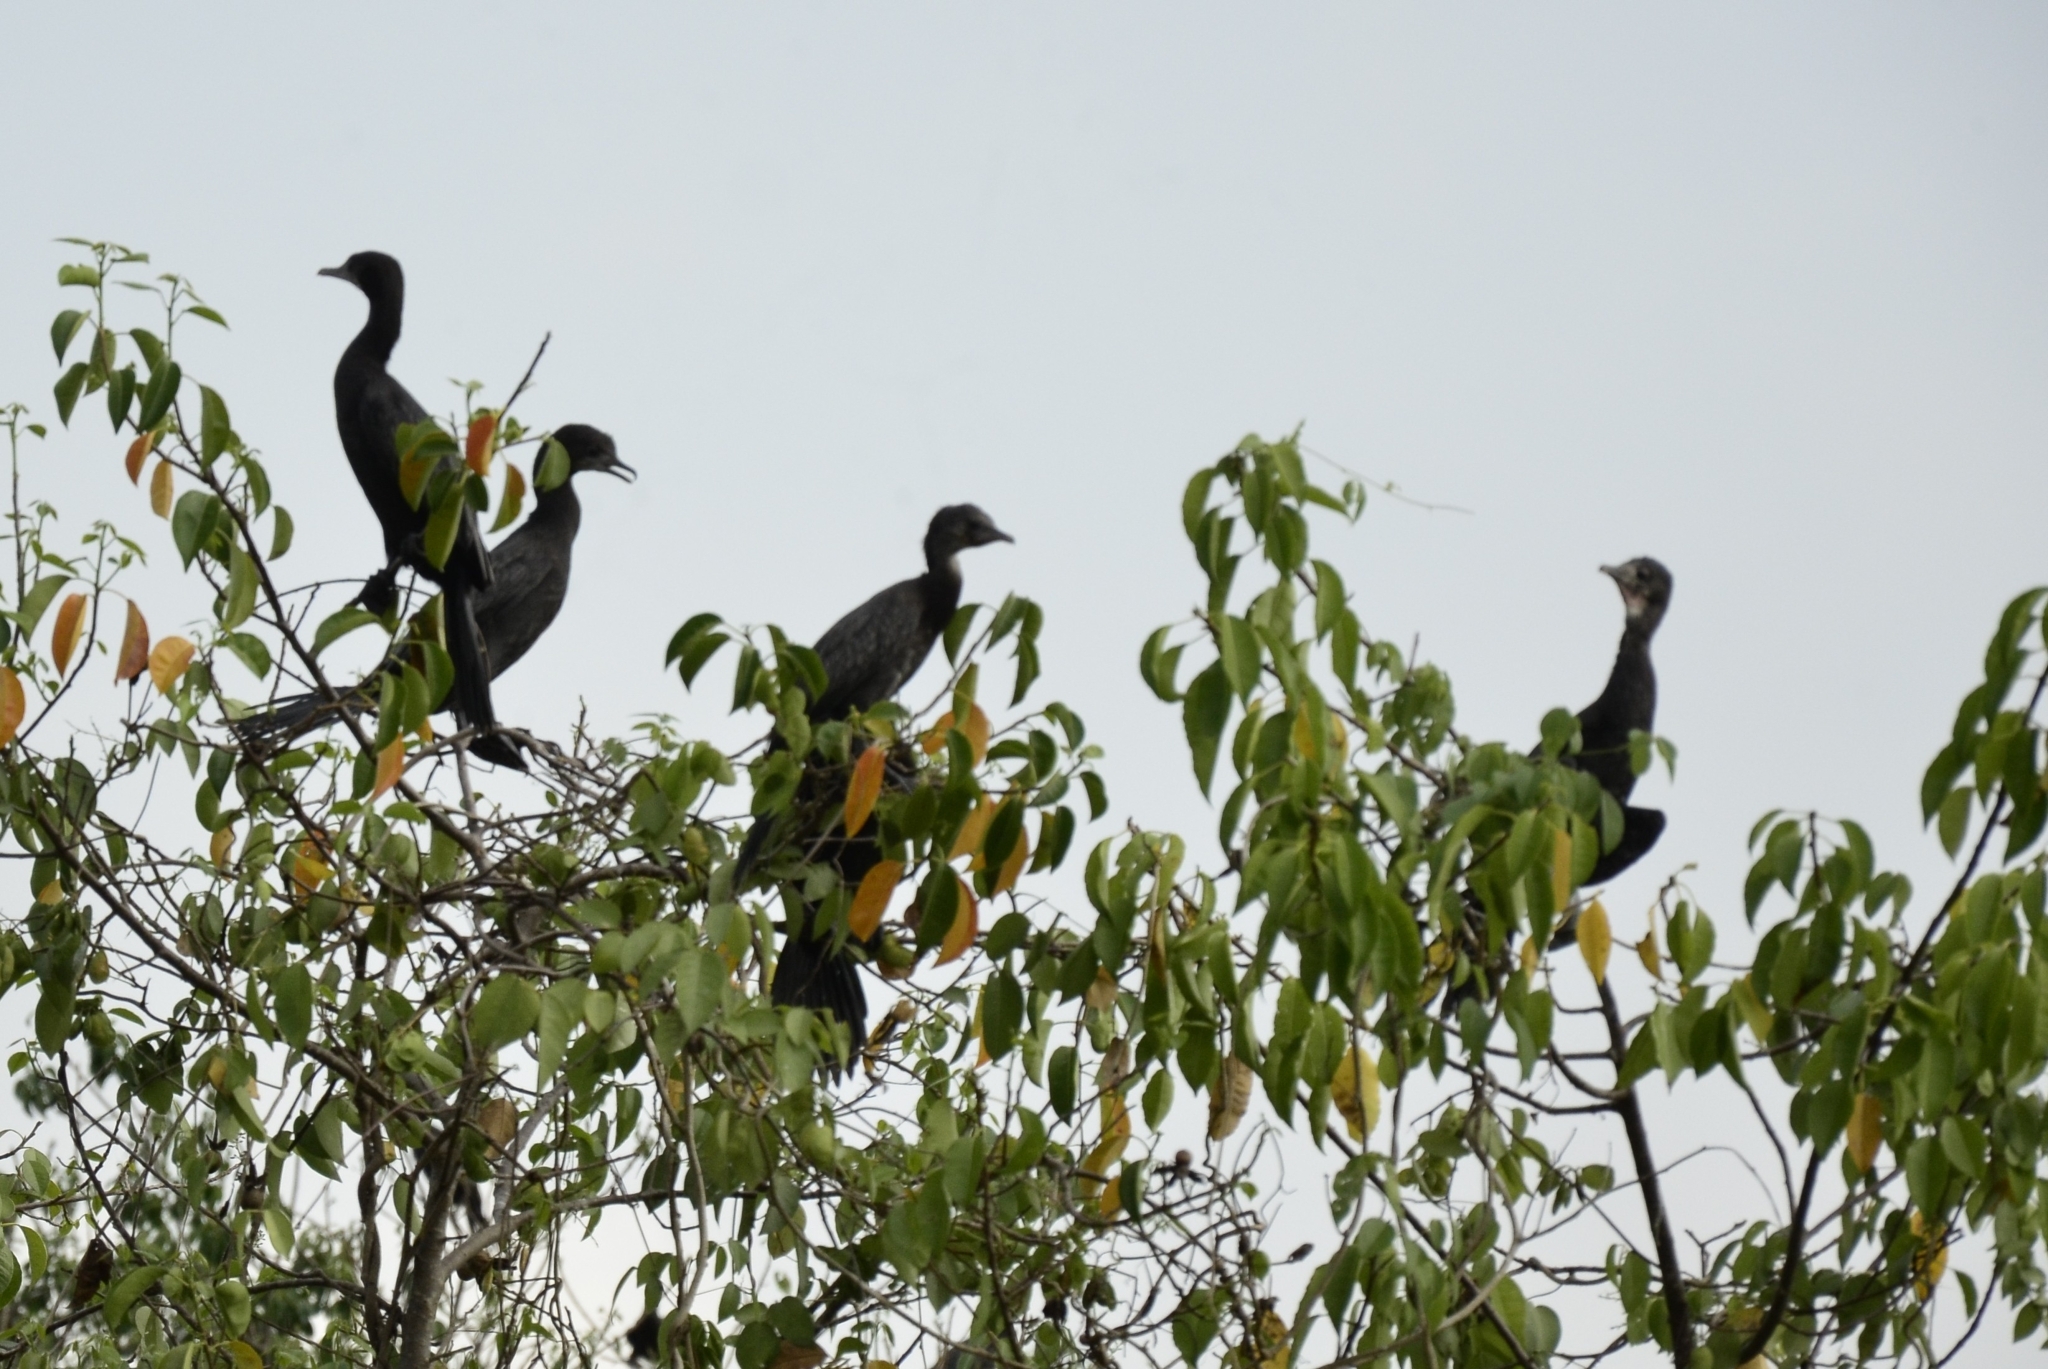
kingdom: Animalia
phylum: Chordata
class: Aves
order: Suliformes
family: Phalacrocoracidae
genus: Microcarbo
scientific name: Microcarbo niger
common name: Little cormorant
